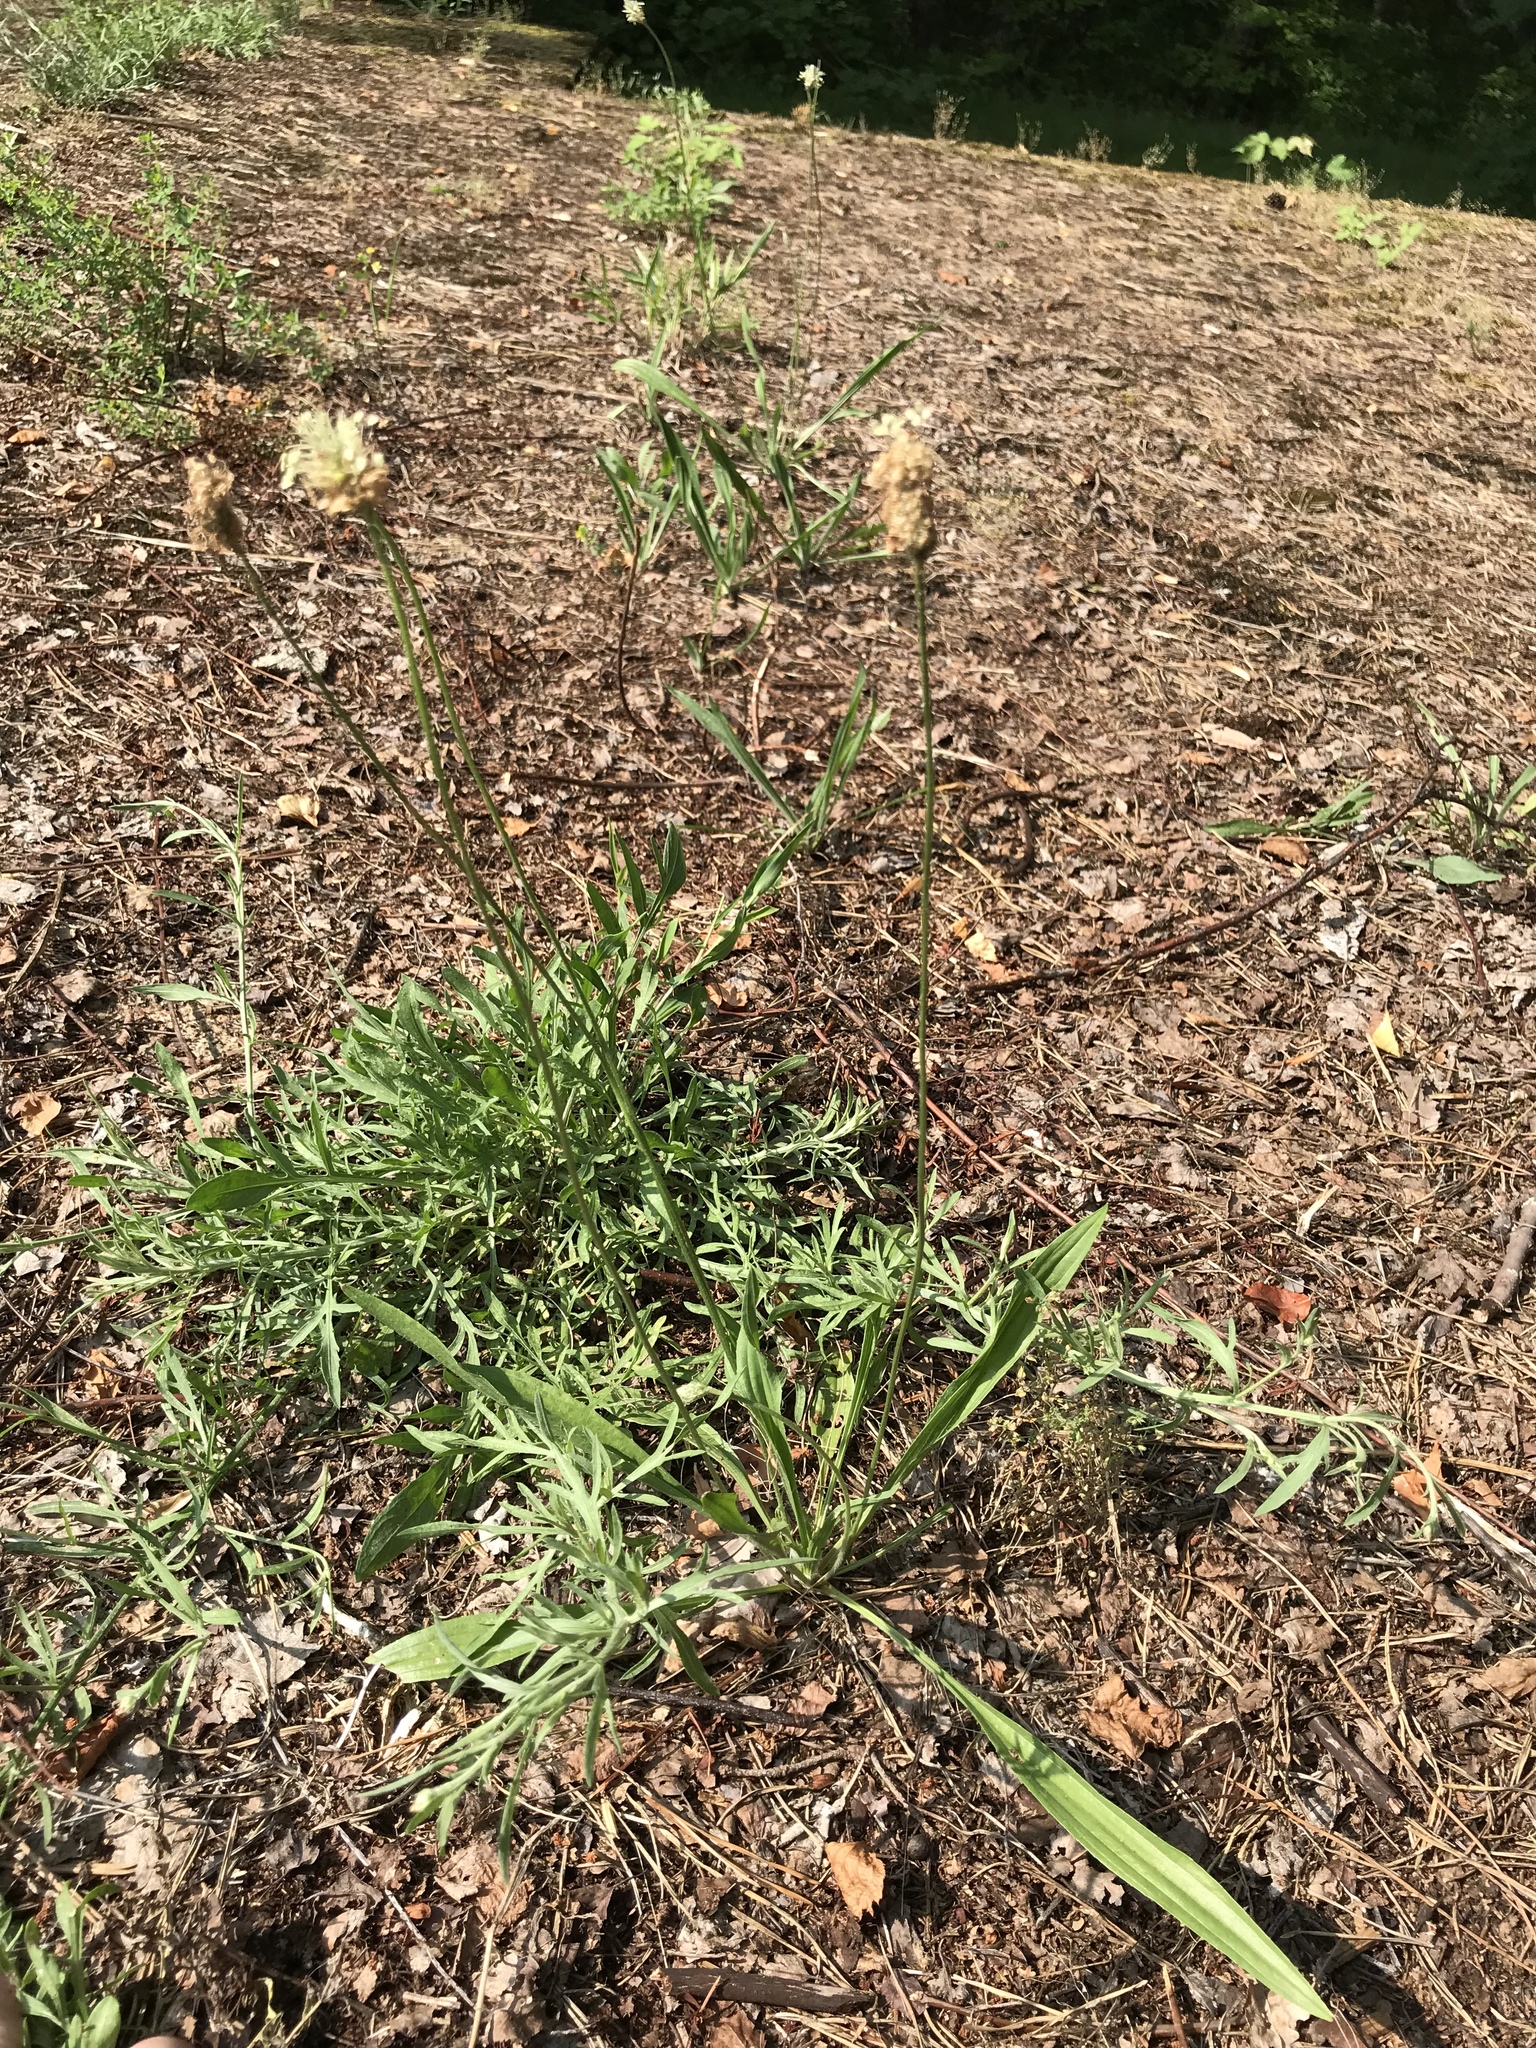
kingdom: Plantae
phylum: Tracheophyta
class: Magnoliopsida
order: Lamiales
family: Plantaginaceae
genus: Plantago
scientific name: Plantago lanceolata
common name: Ribwort plantain
